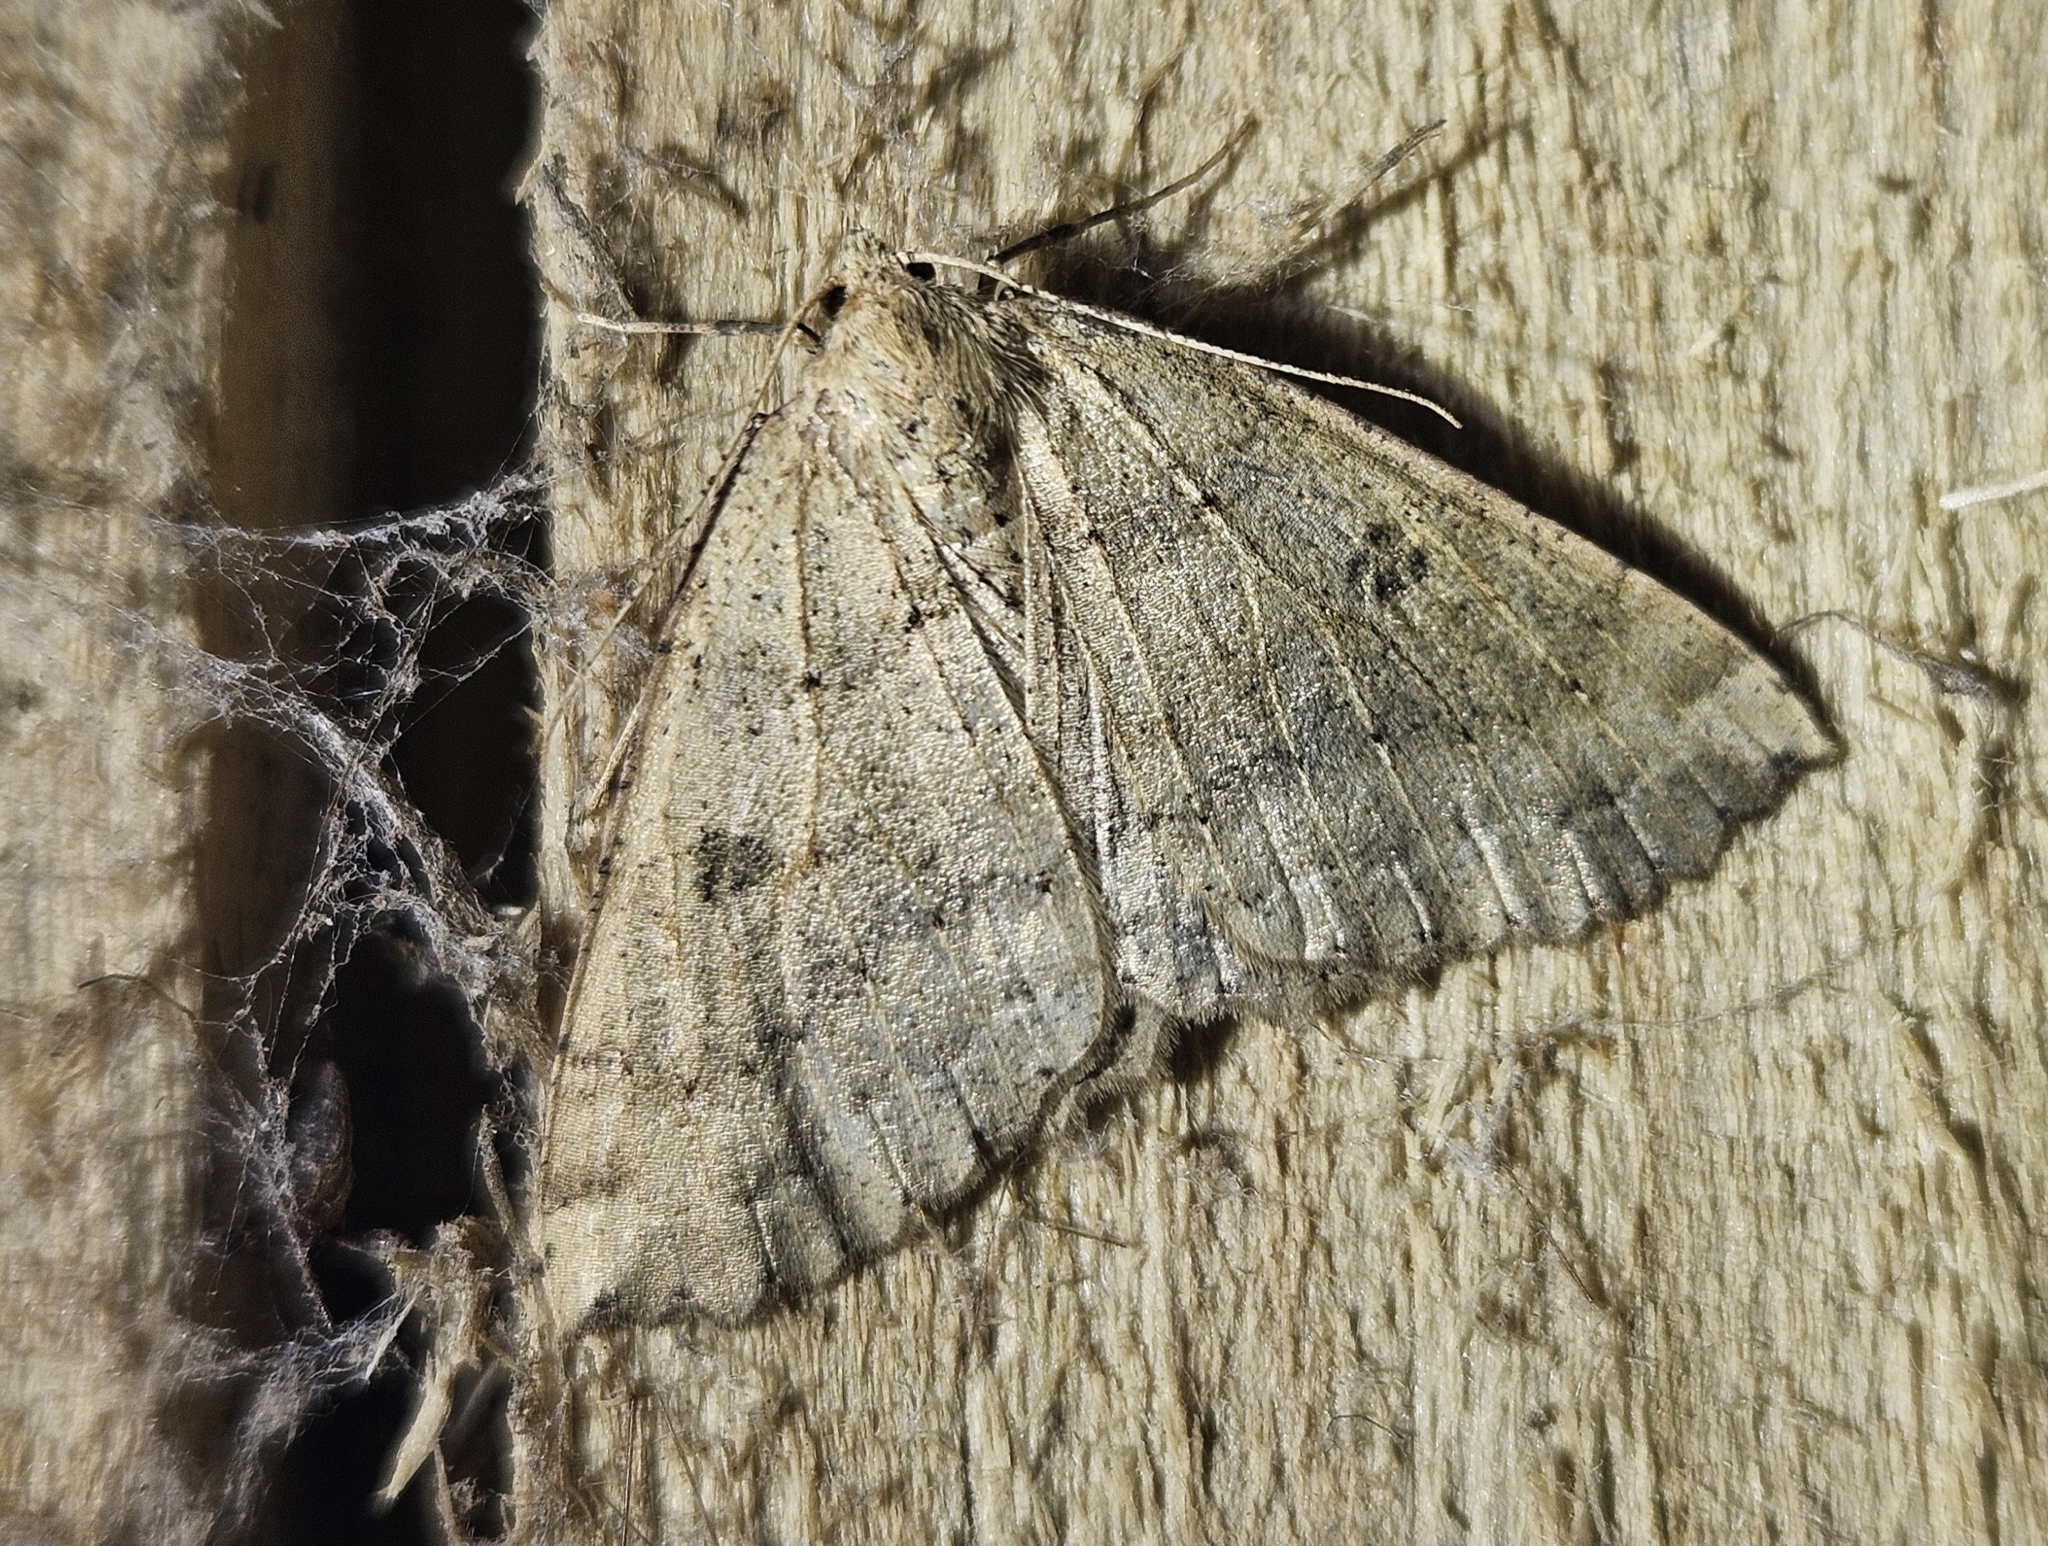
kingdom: Animalia
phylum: Arthropoda
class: Insecta
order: Lepidoptera
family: Geometridae
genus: Cleora
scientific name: Cleora scriptaria
